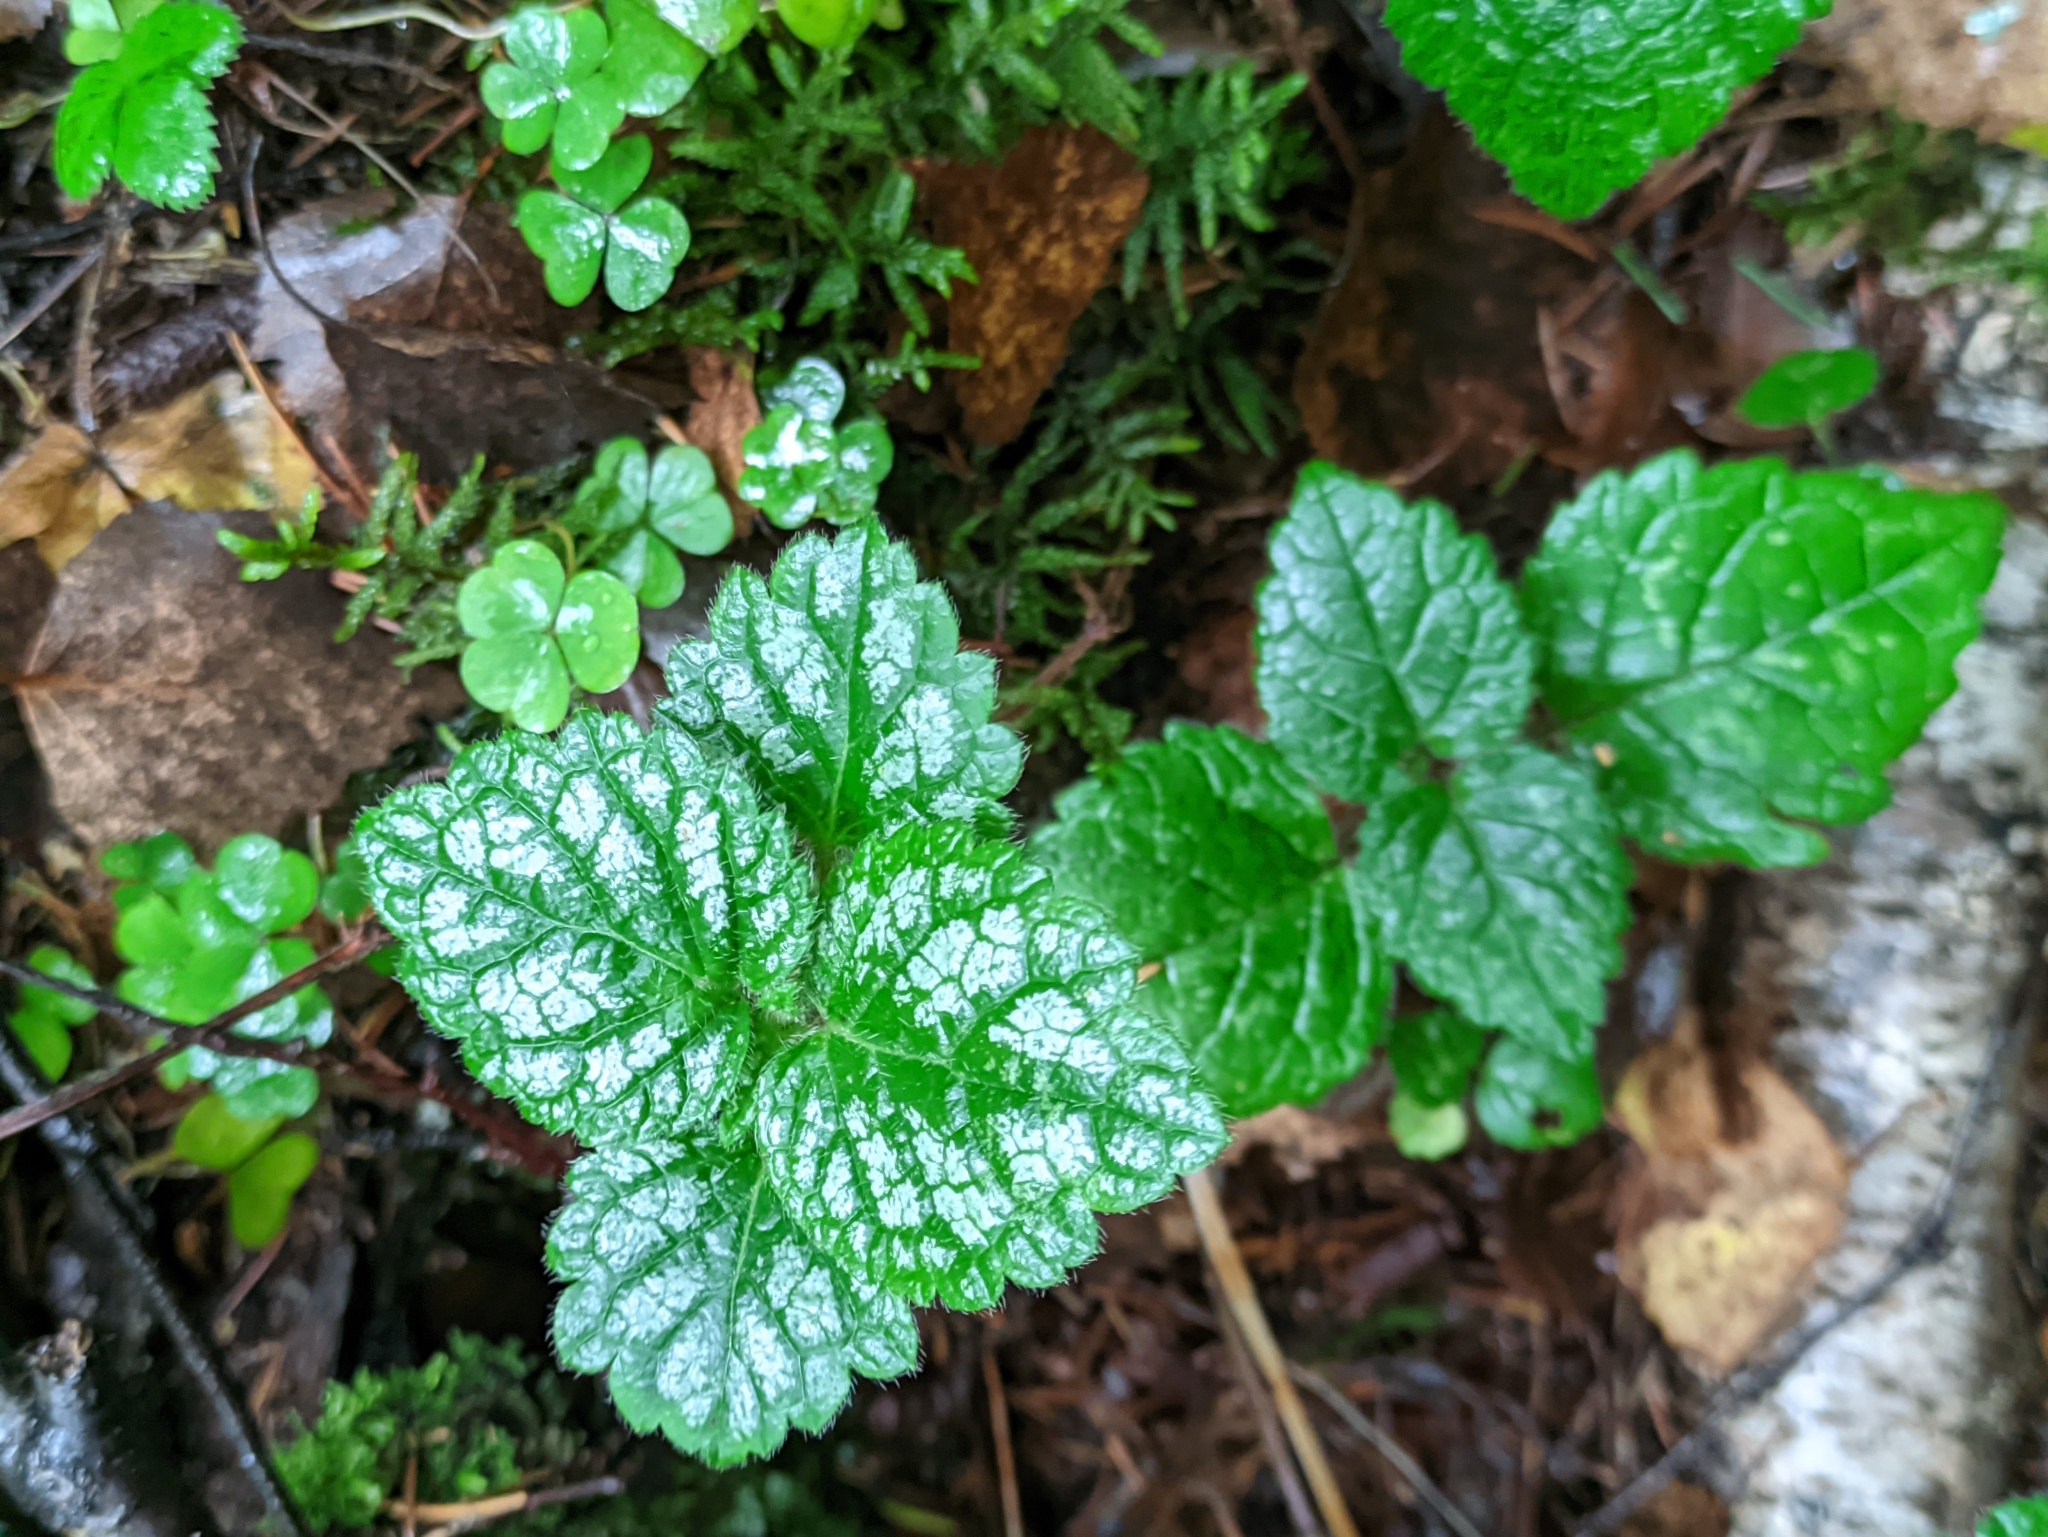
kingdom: Plantae
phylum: Tracheophyta
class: Magnoliopsida
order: Lamiales
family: Lamiaceae
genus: Lamium
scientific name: Lamium galeobdolon
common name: Yellow archangel
